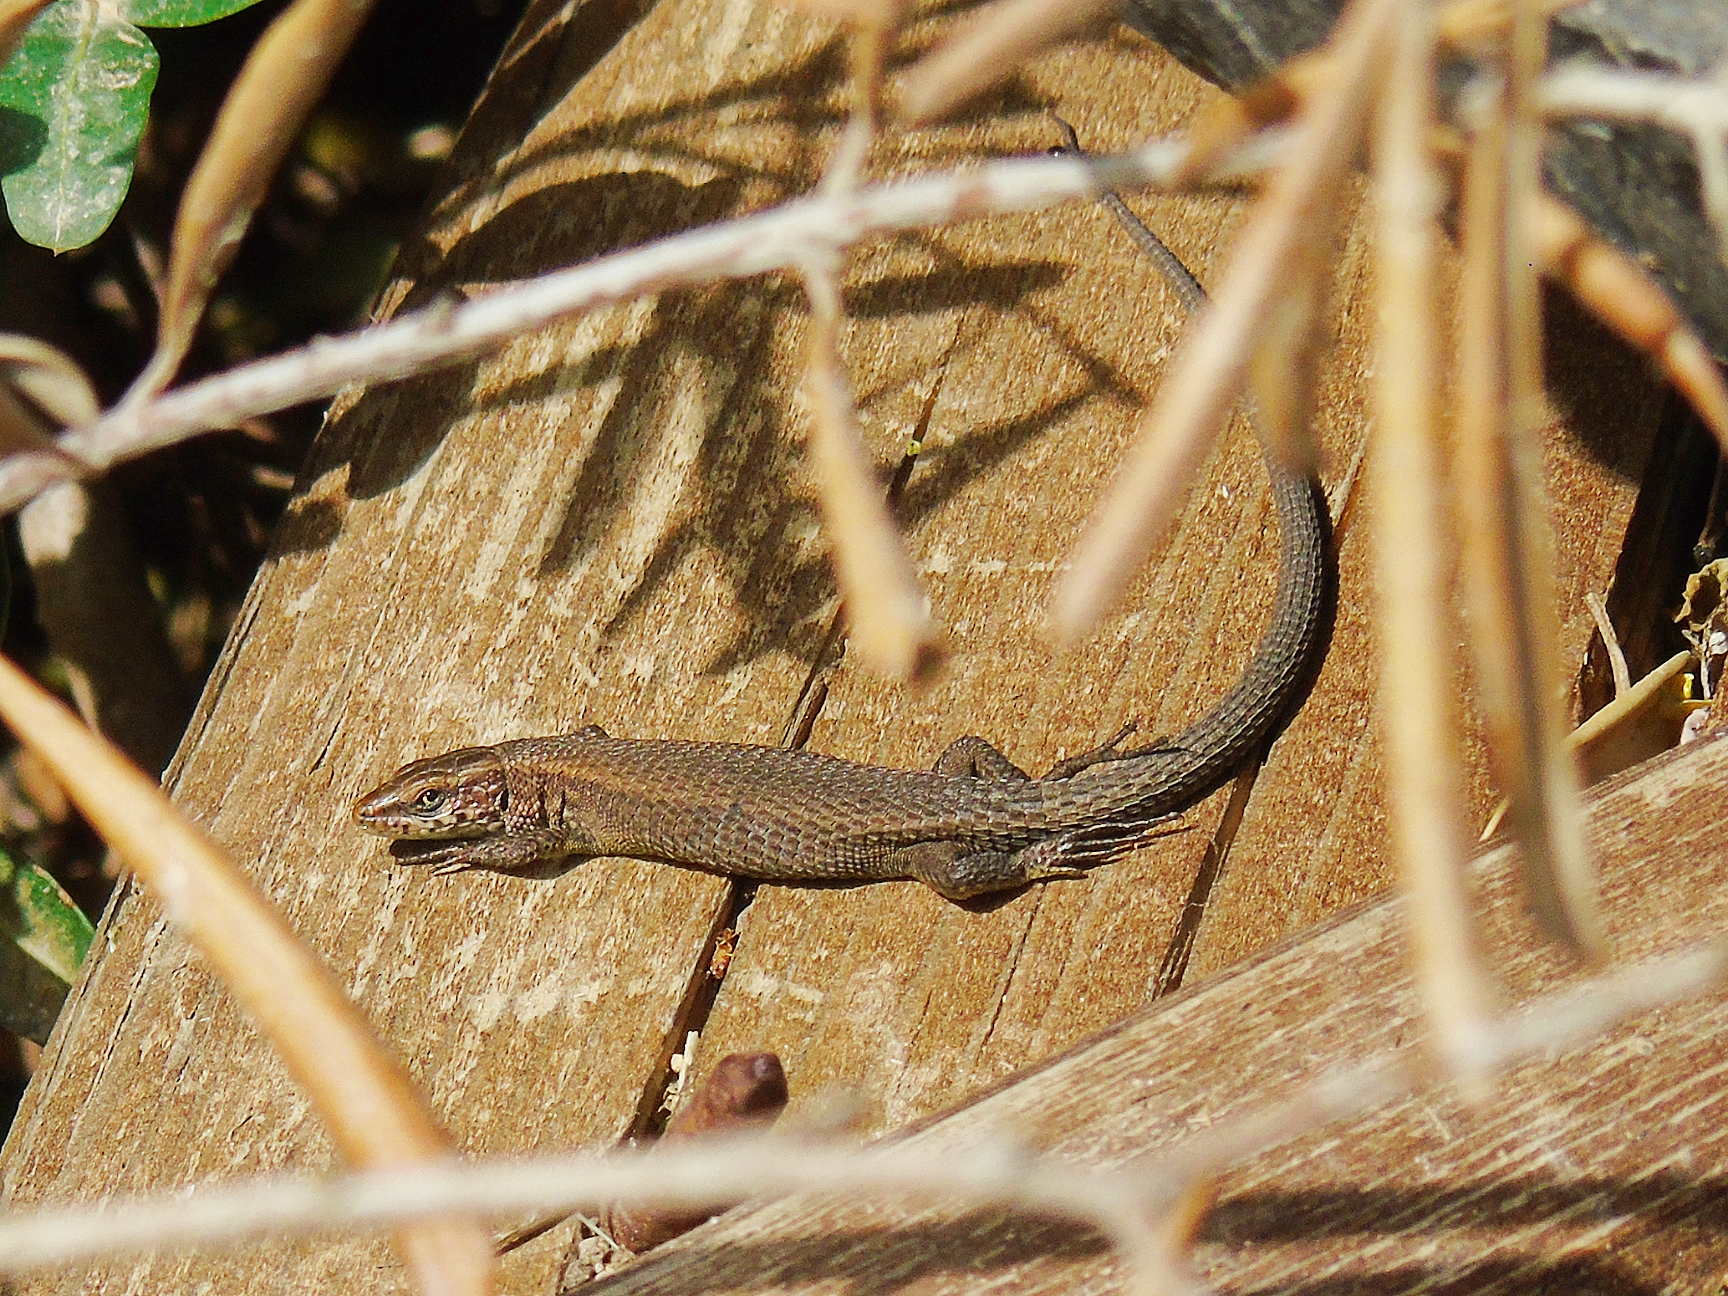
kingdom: Animalia
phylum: Chordata
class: Squamata
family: Lacertidae
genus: Algyroides
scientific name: Algyroides moreoticus
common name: Greek algyroides
